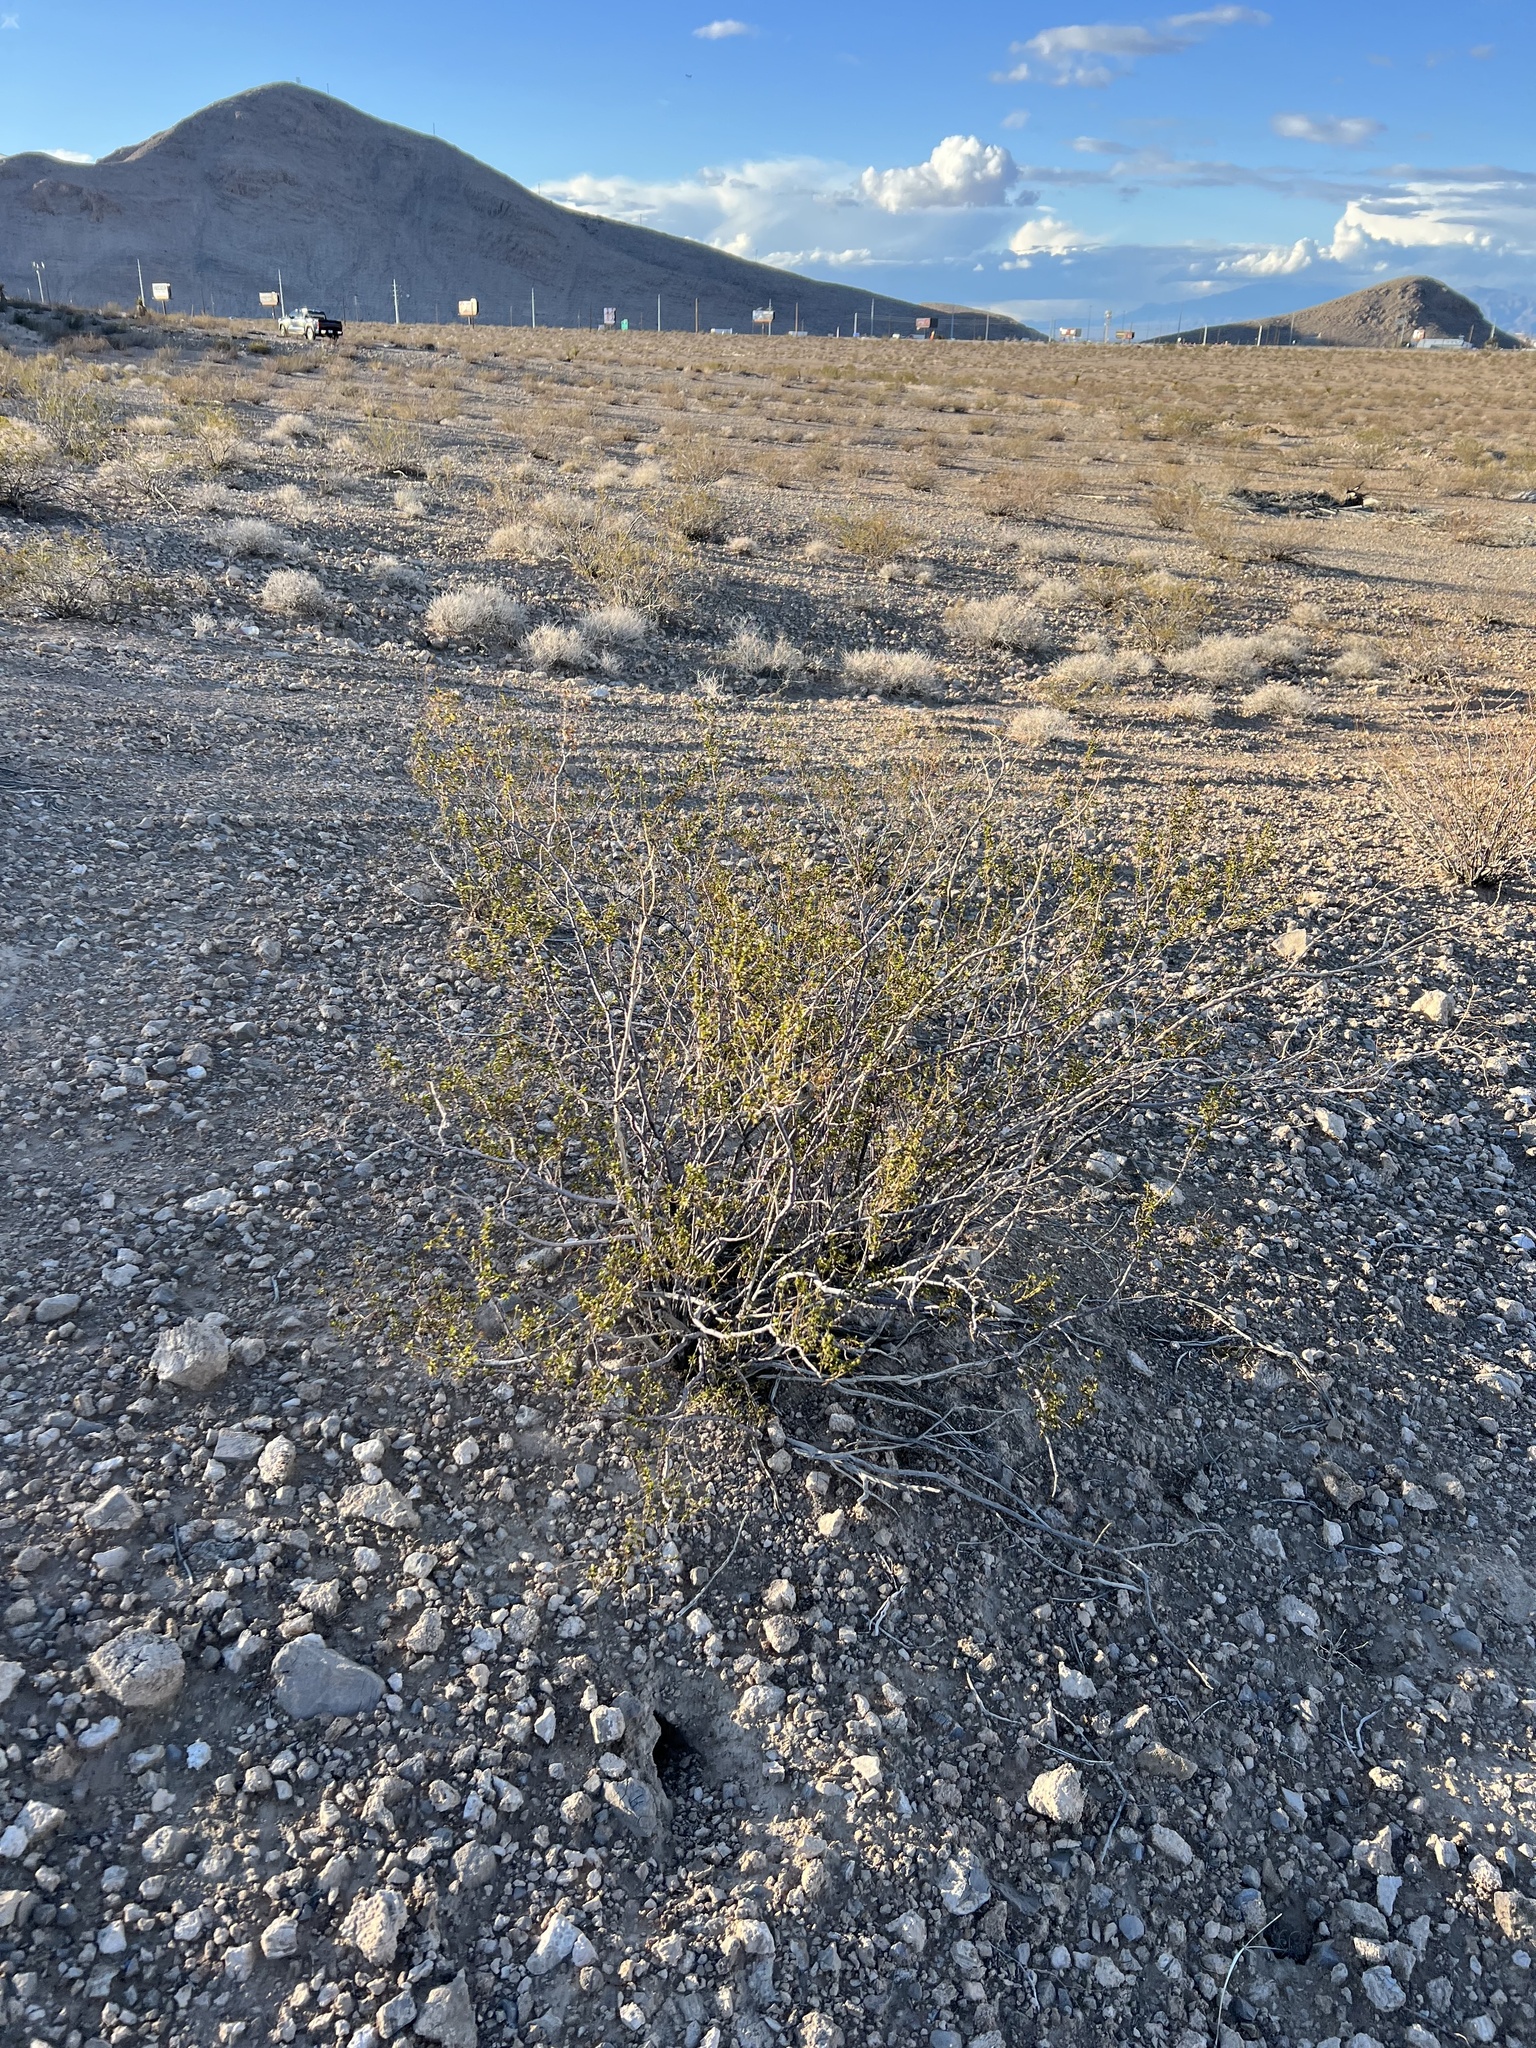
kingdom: Plantae
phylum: Tracheophyta
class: Magnoliopsida
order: Zygophyllales
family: Zygophyllaceae
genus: Larrea
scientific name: Larrea tridentata
